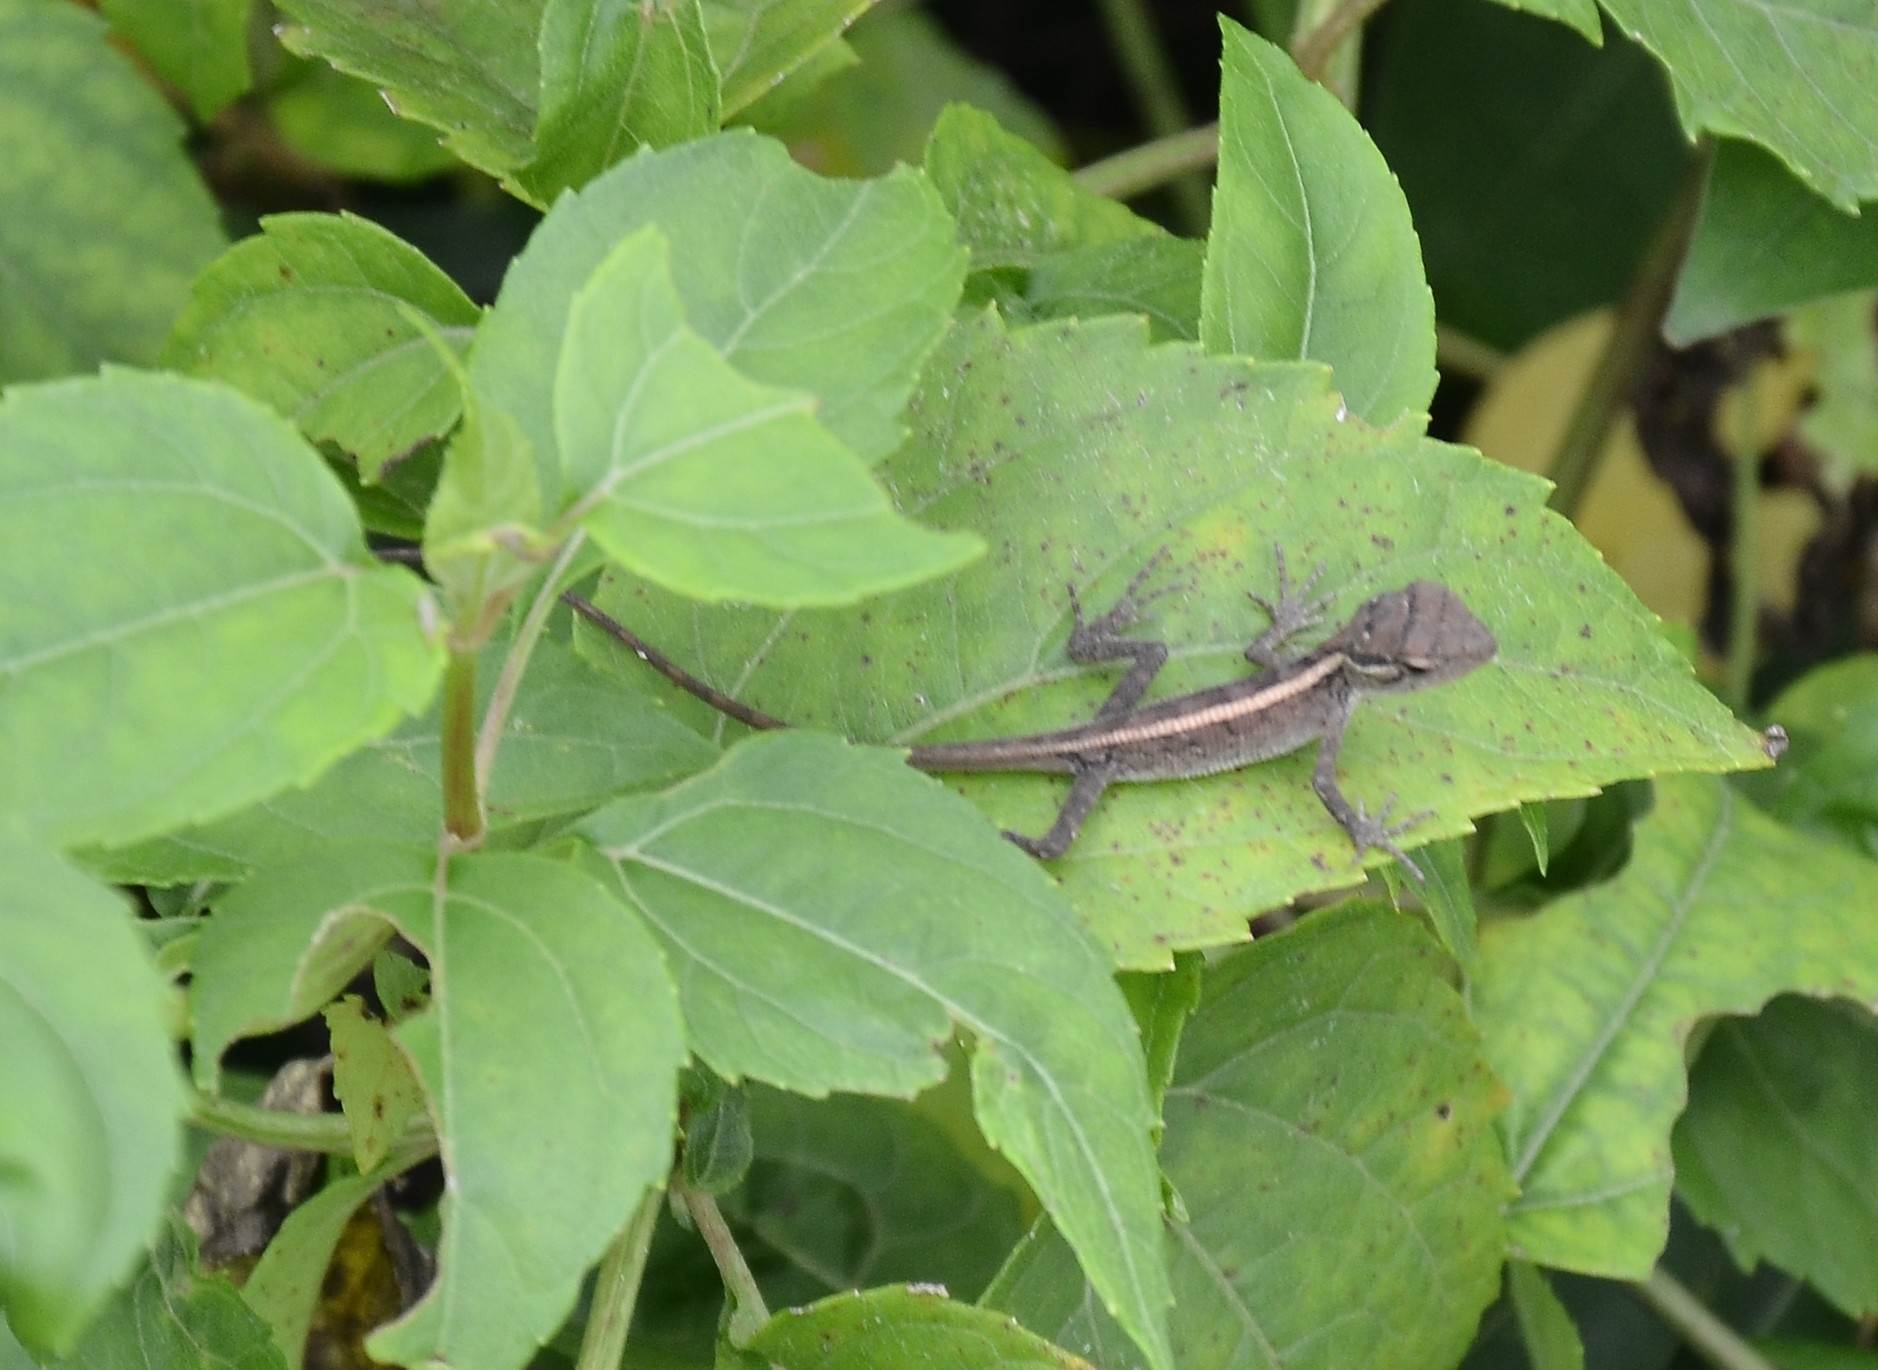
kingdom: Animalia
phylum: Chordata
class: Squamata
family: Agamidae
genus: Calotes
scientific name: Calotes versicolor
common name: Oriental garden lizard
